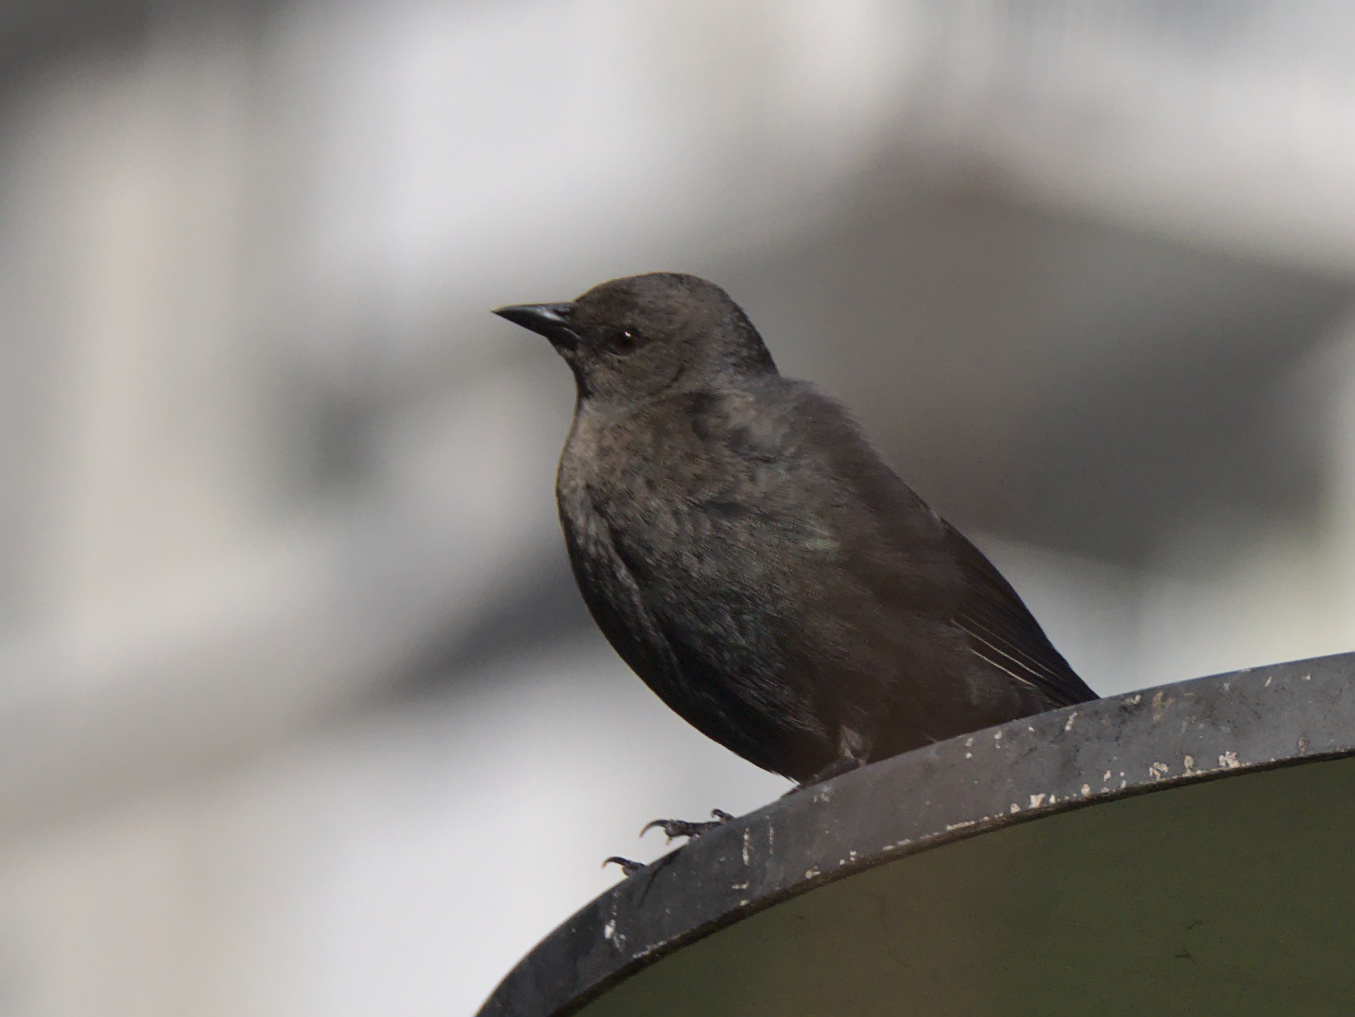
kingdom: Animalia
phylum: Chordata
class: Aves
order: Passeriformes
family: Icteridae
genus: Euphagus
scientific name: Euphagus cyanocephalus
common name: Brewer's blackbird
